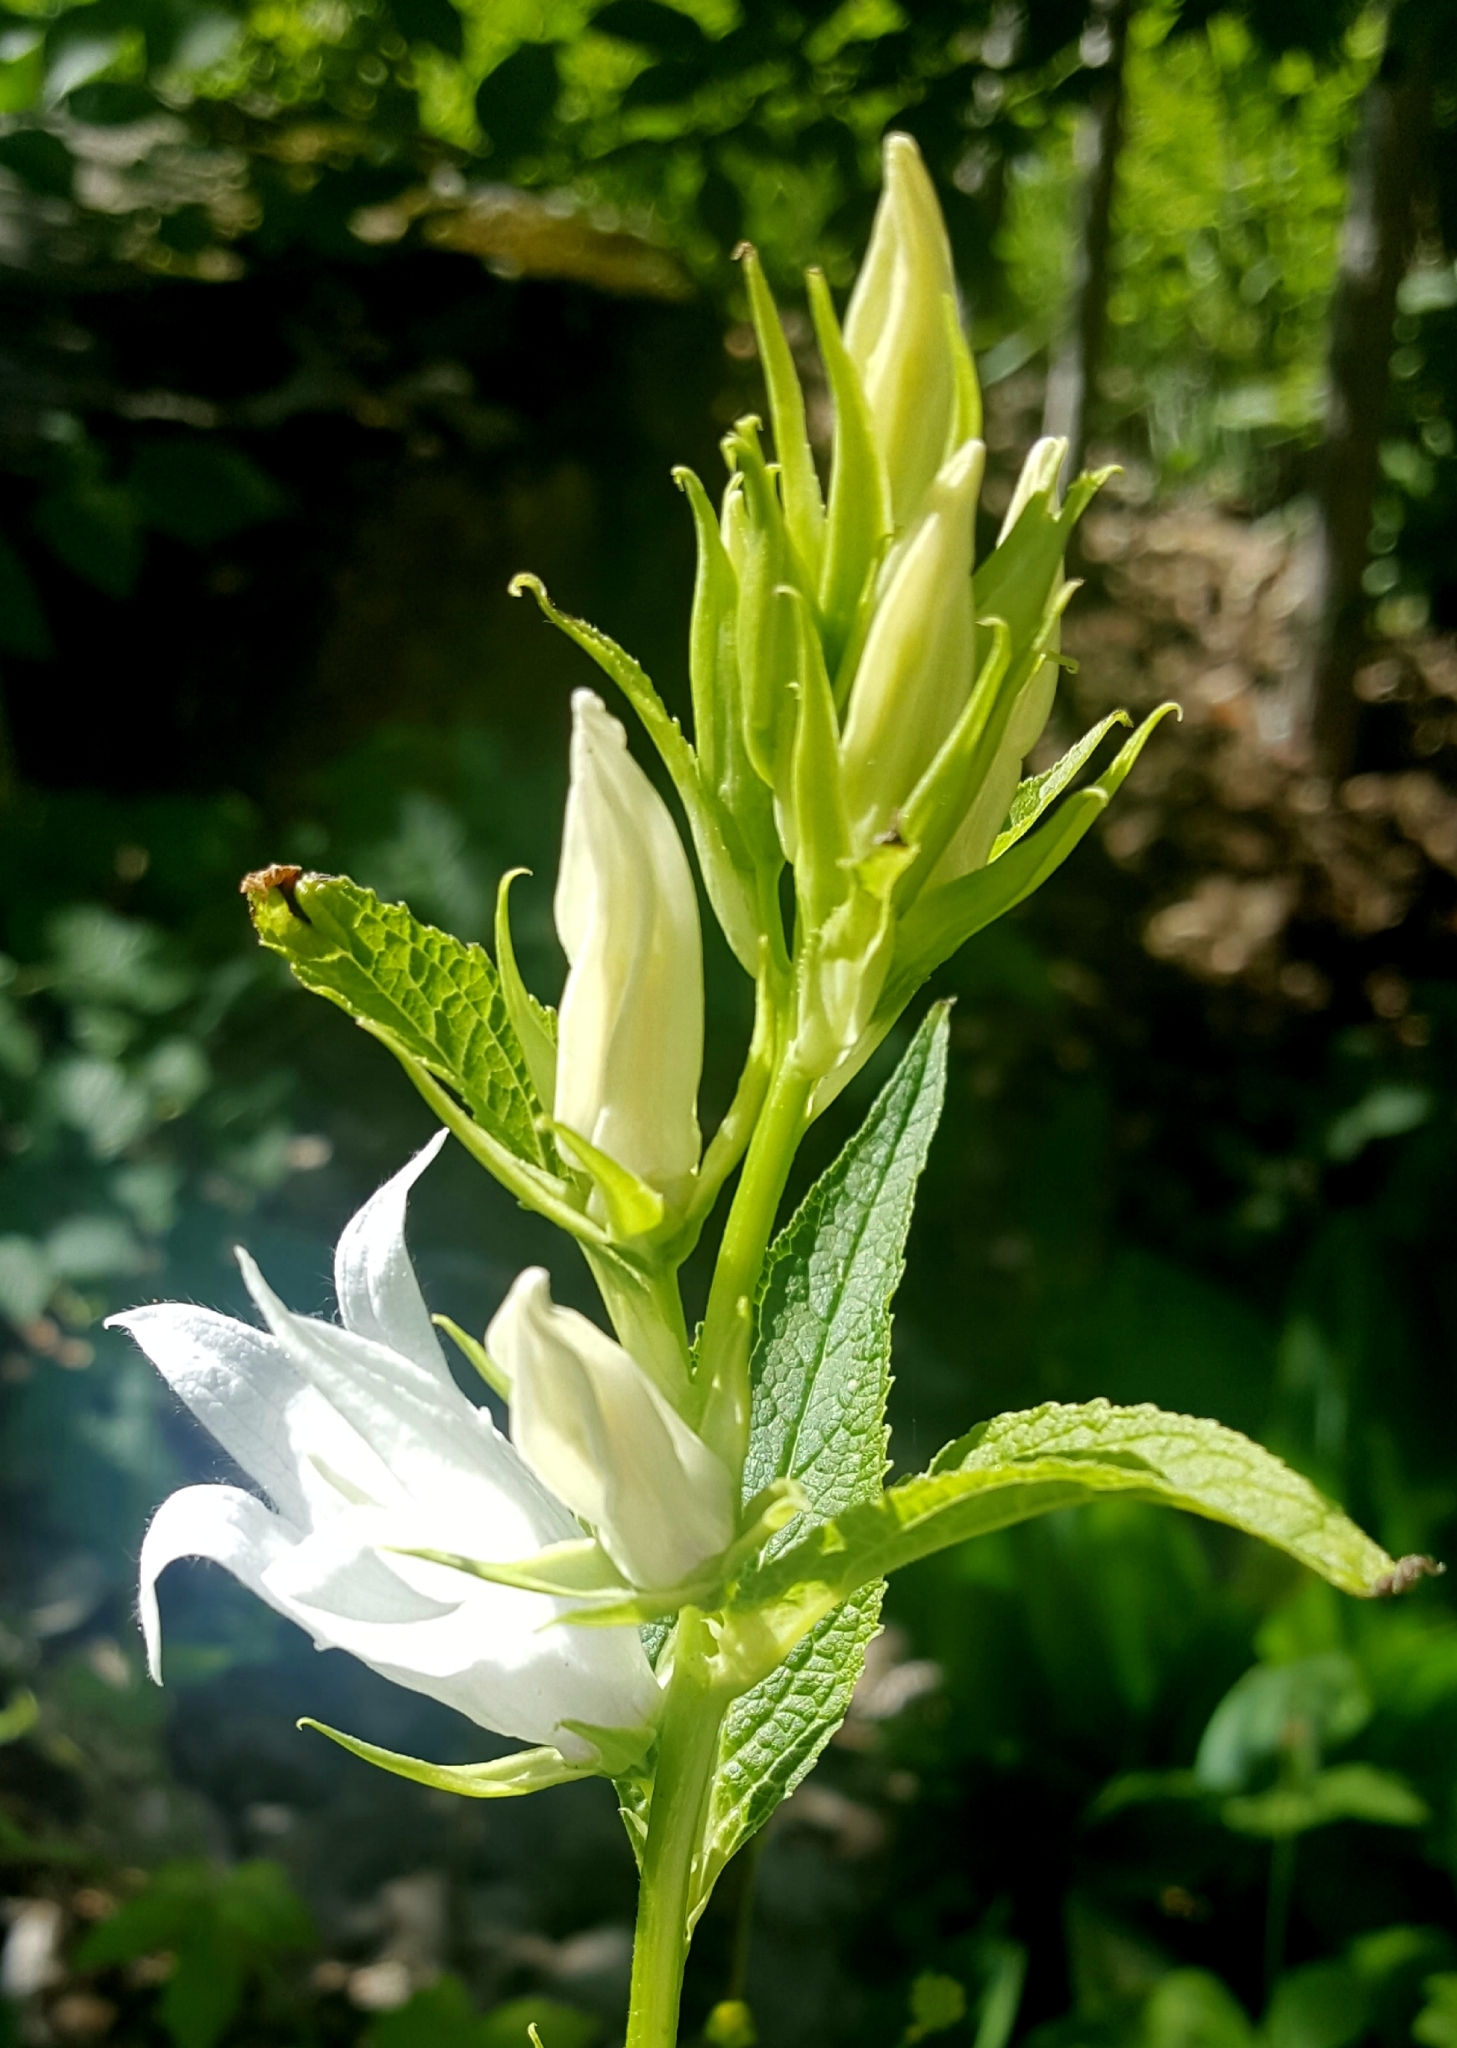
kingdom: Plantae
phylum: Tracheophyta
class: Magnoliopsida
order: Asterales
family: Campanulaceae
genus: Campanula
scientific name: Campanula latifolia
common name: Giant bellflower
